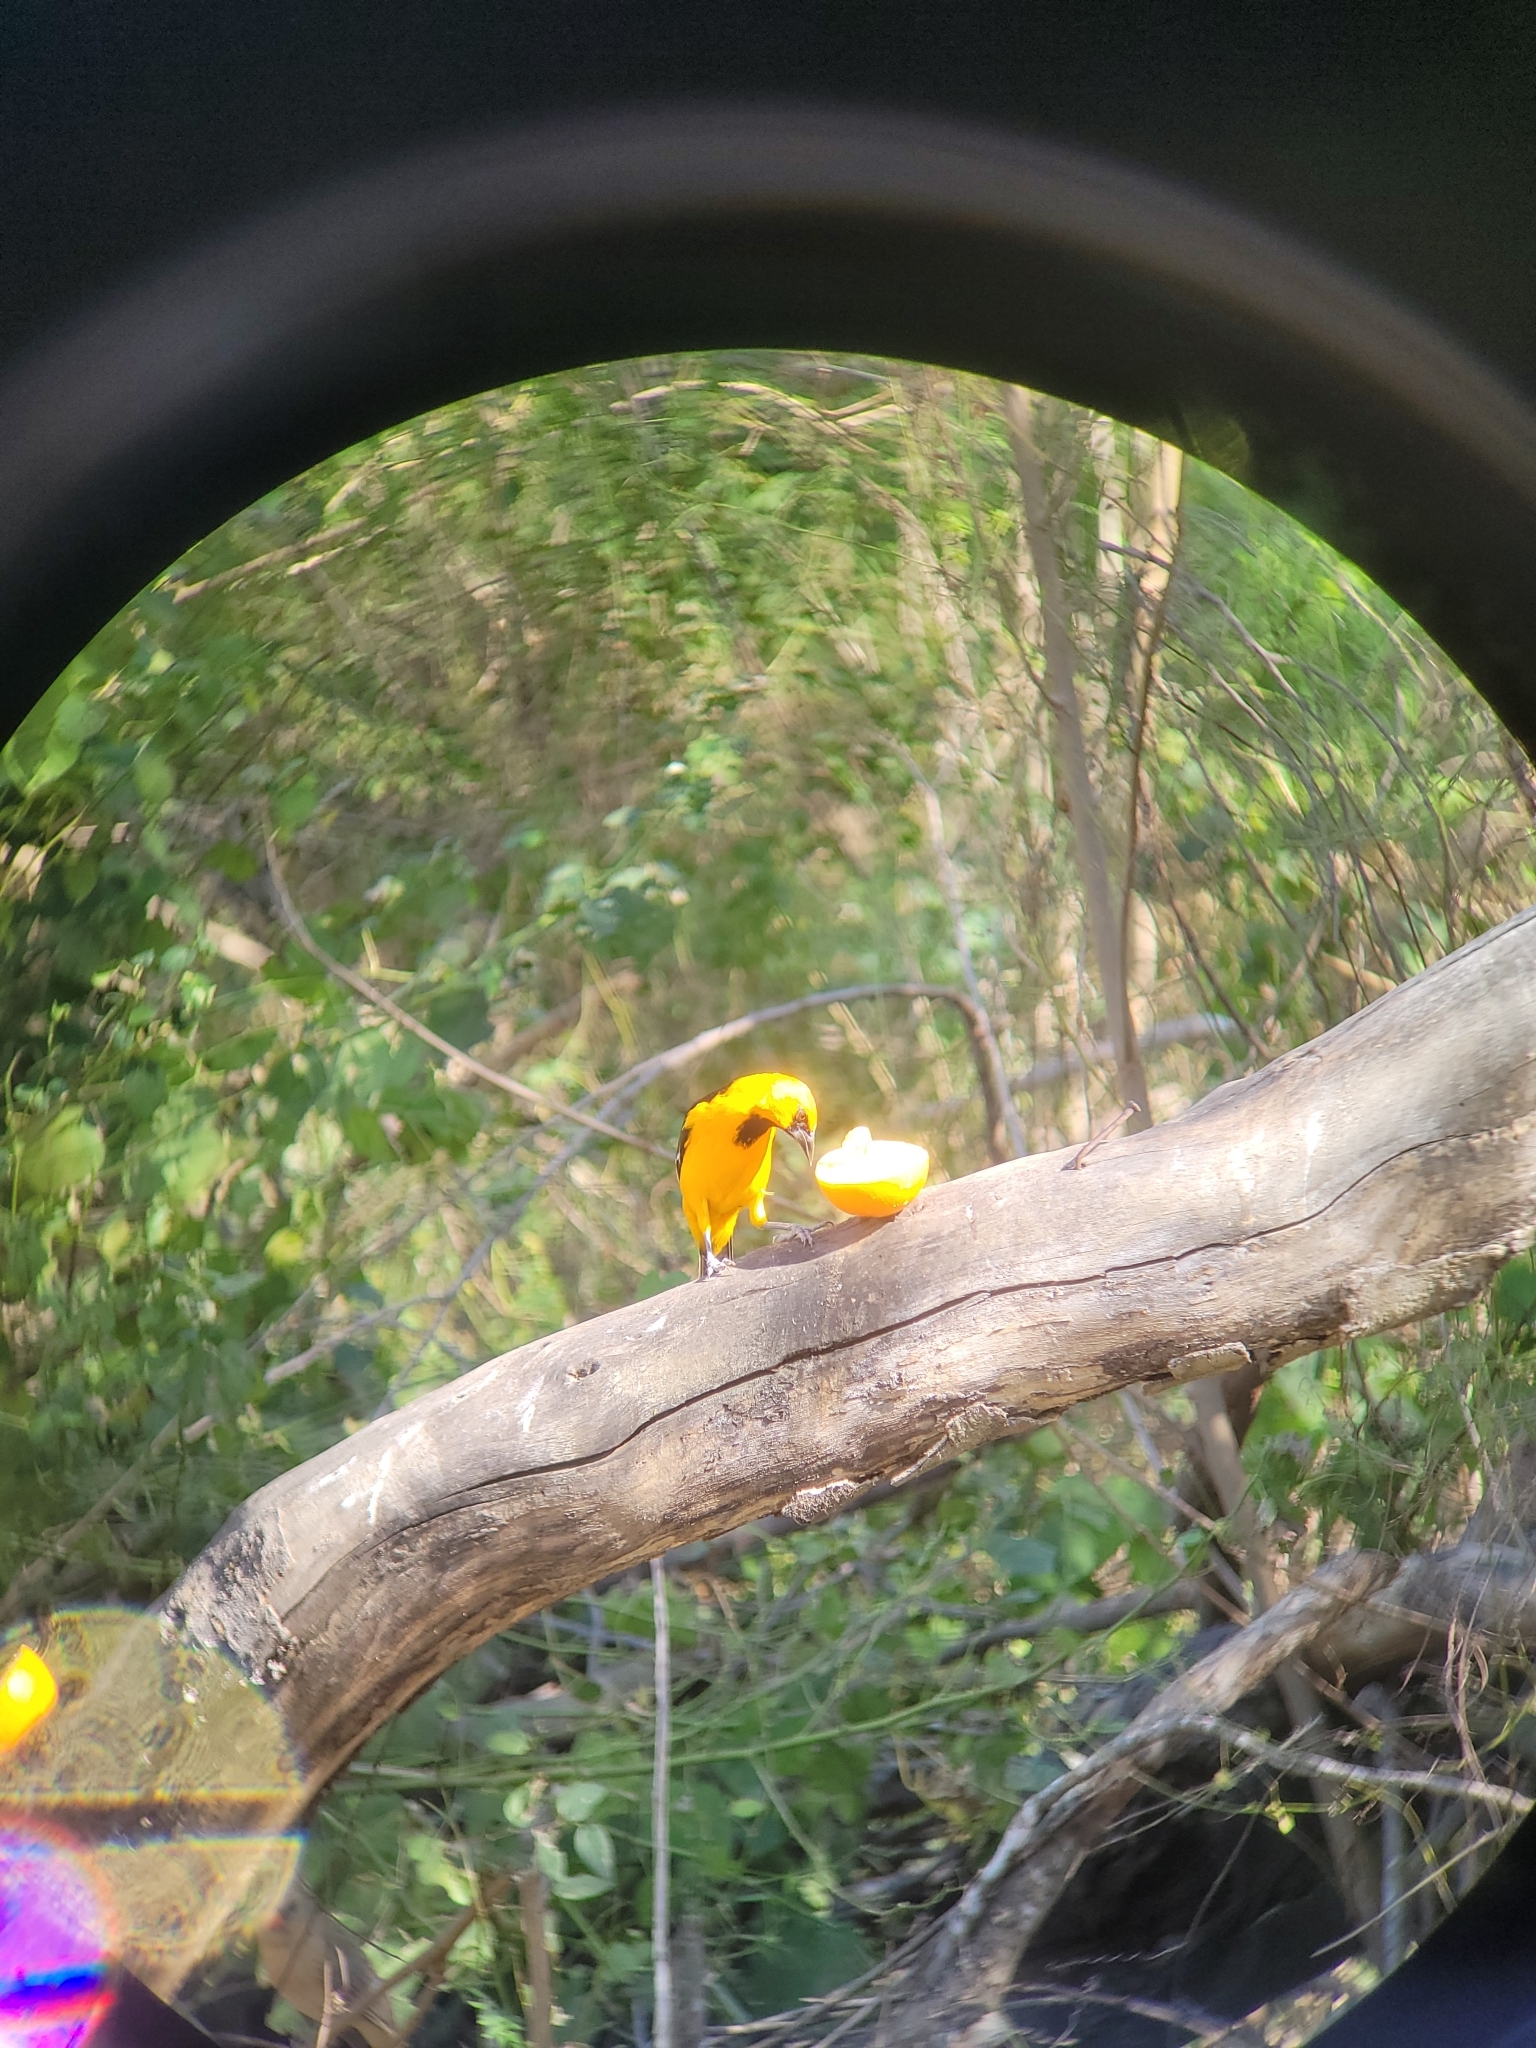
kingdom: Animalia
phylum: Chordata
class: Aves
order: Passeriformes
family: Icteridae
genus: Icterus
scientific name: Icterus gularis
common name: Altamira oriole
